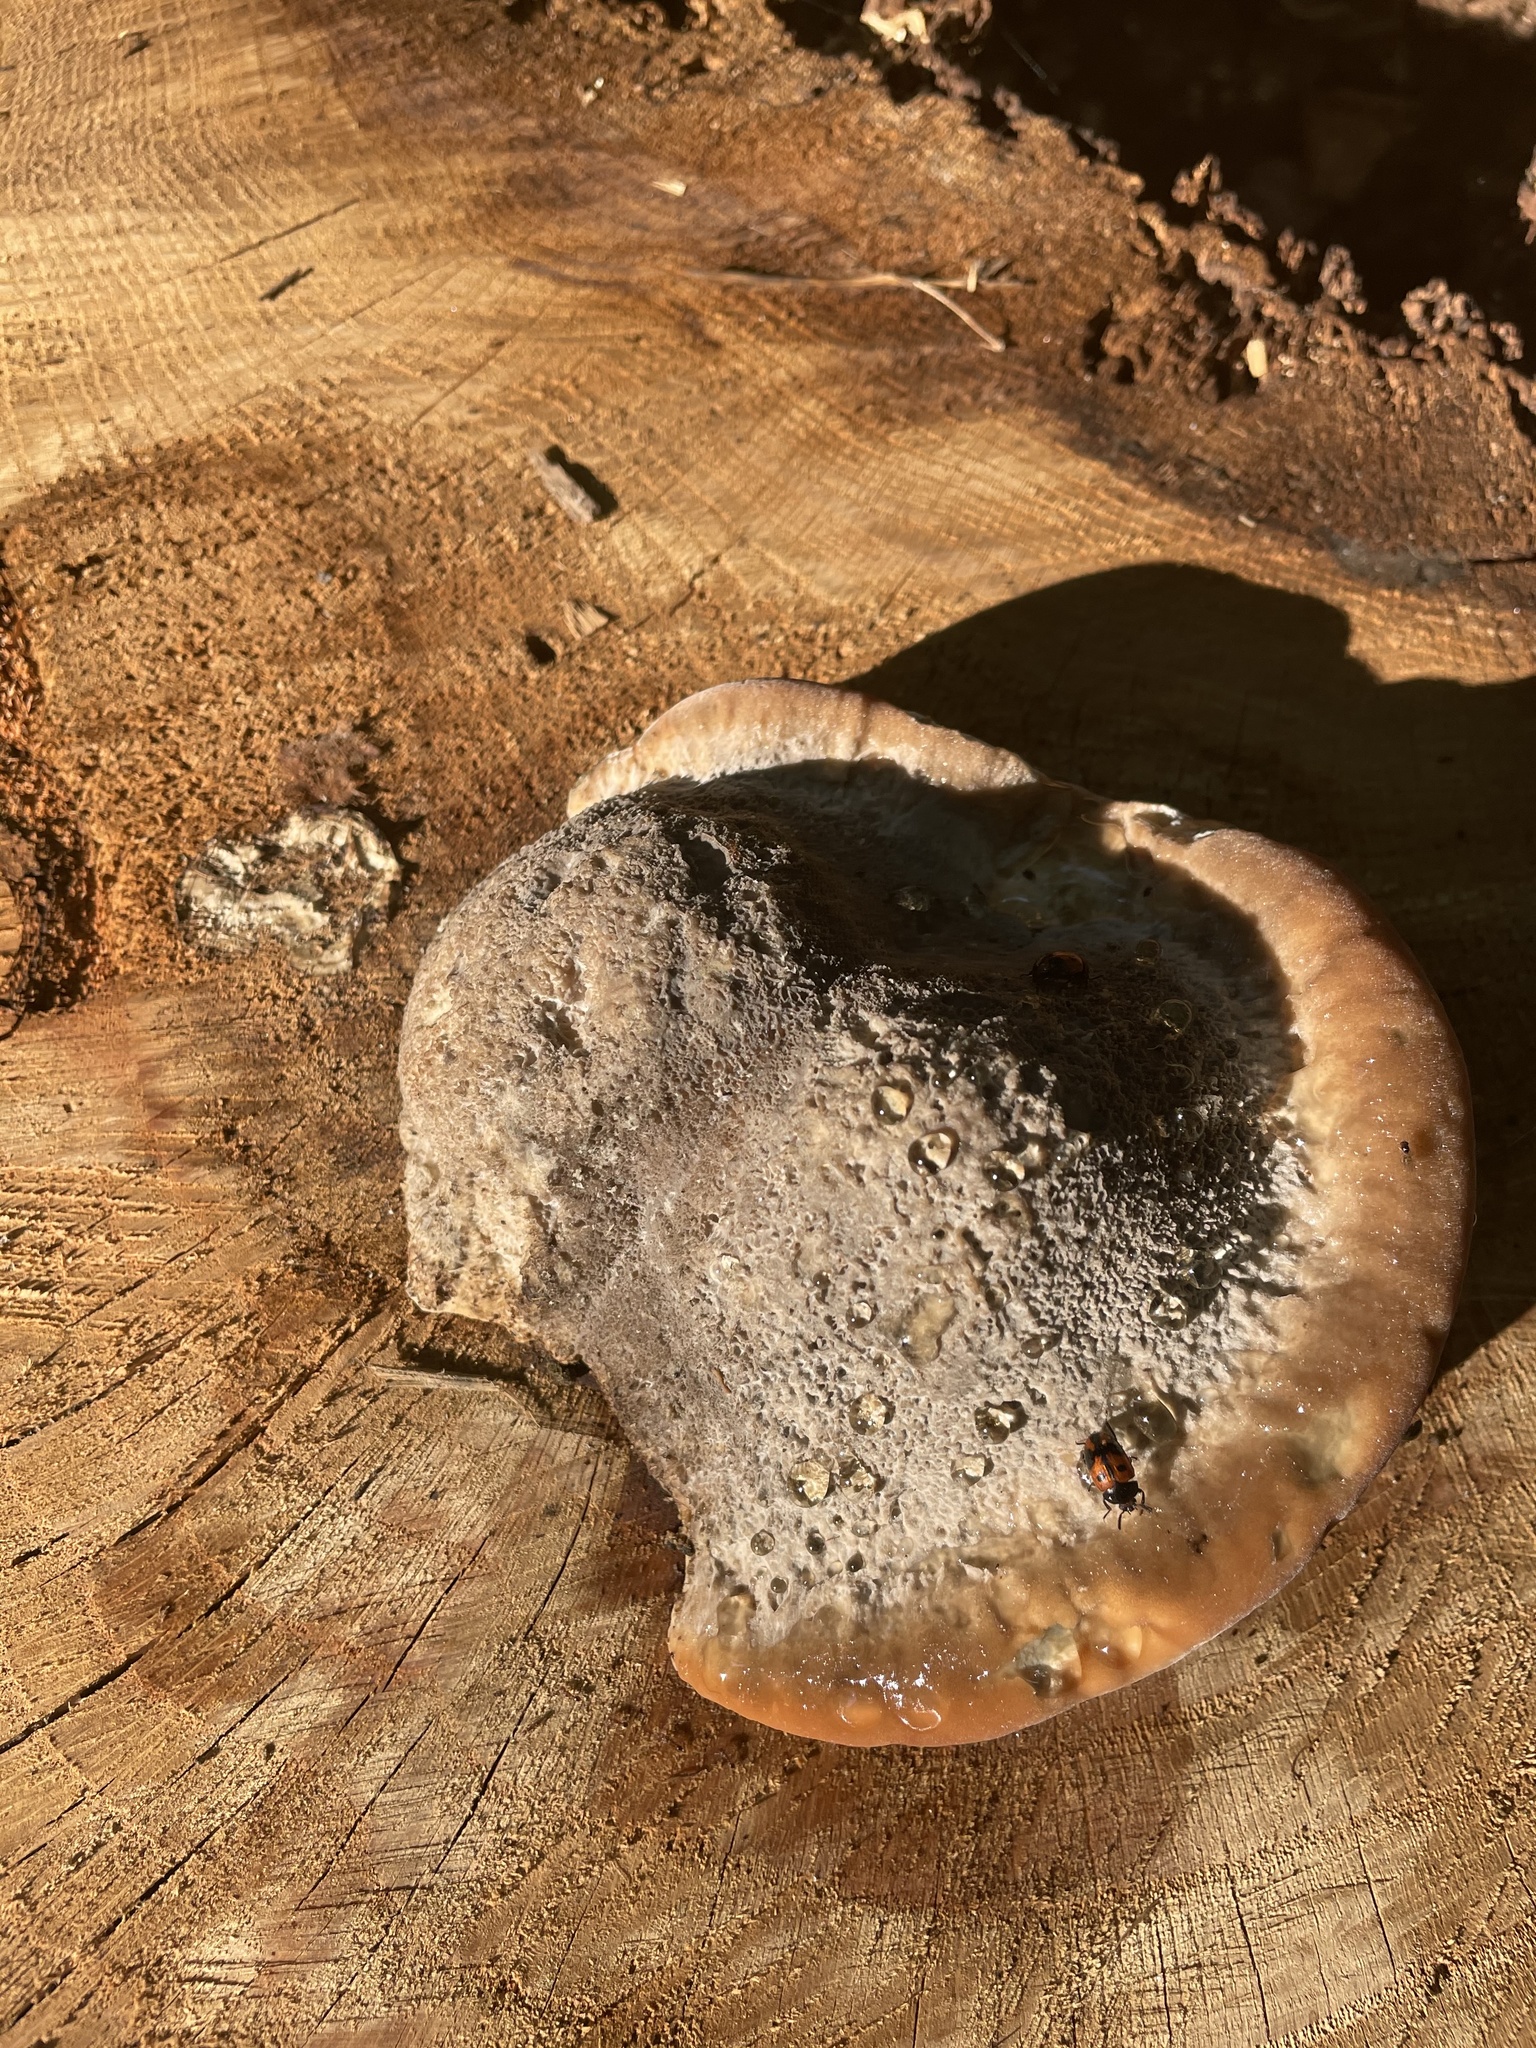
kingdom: Animalia
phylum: Arthropoda
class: Insecta
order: Coleoptera
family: Tenebrionidae
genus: Diaperis
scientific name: Diaperis maculata
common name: Darkling beetle
